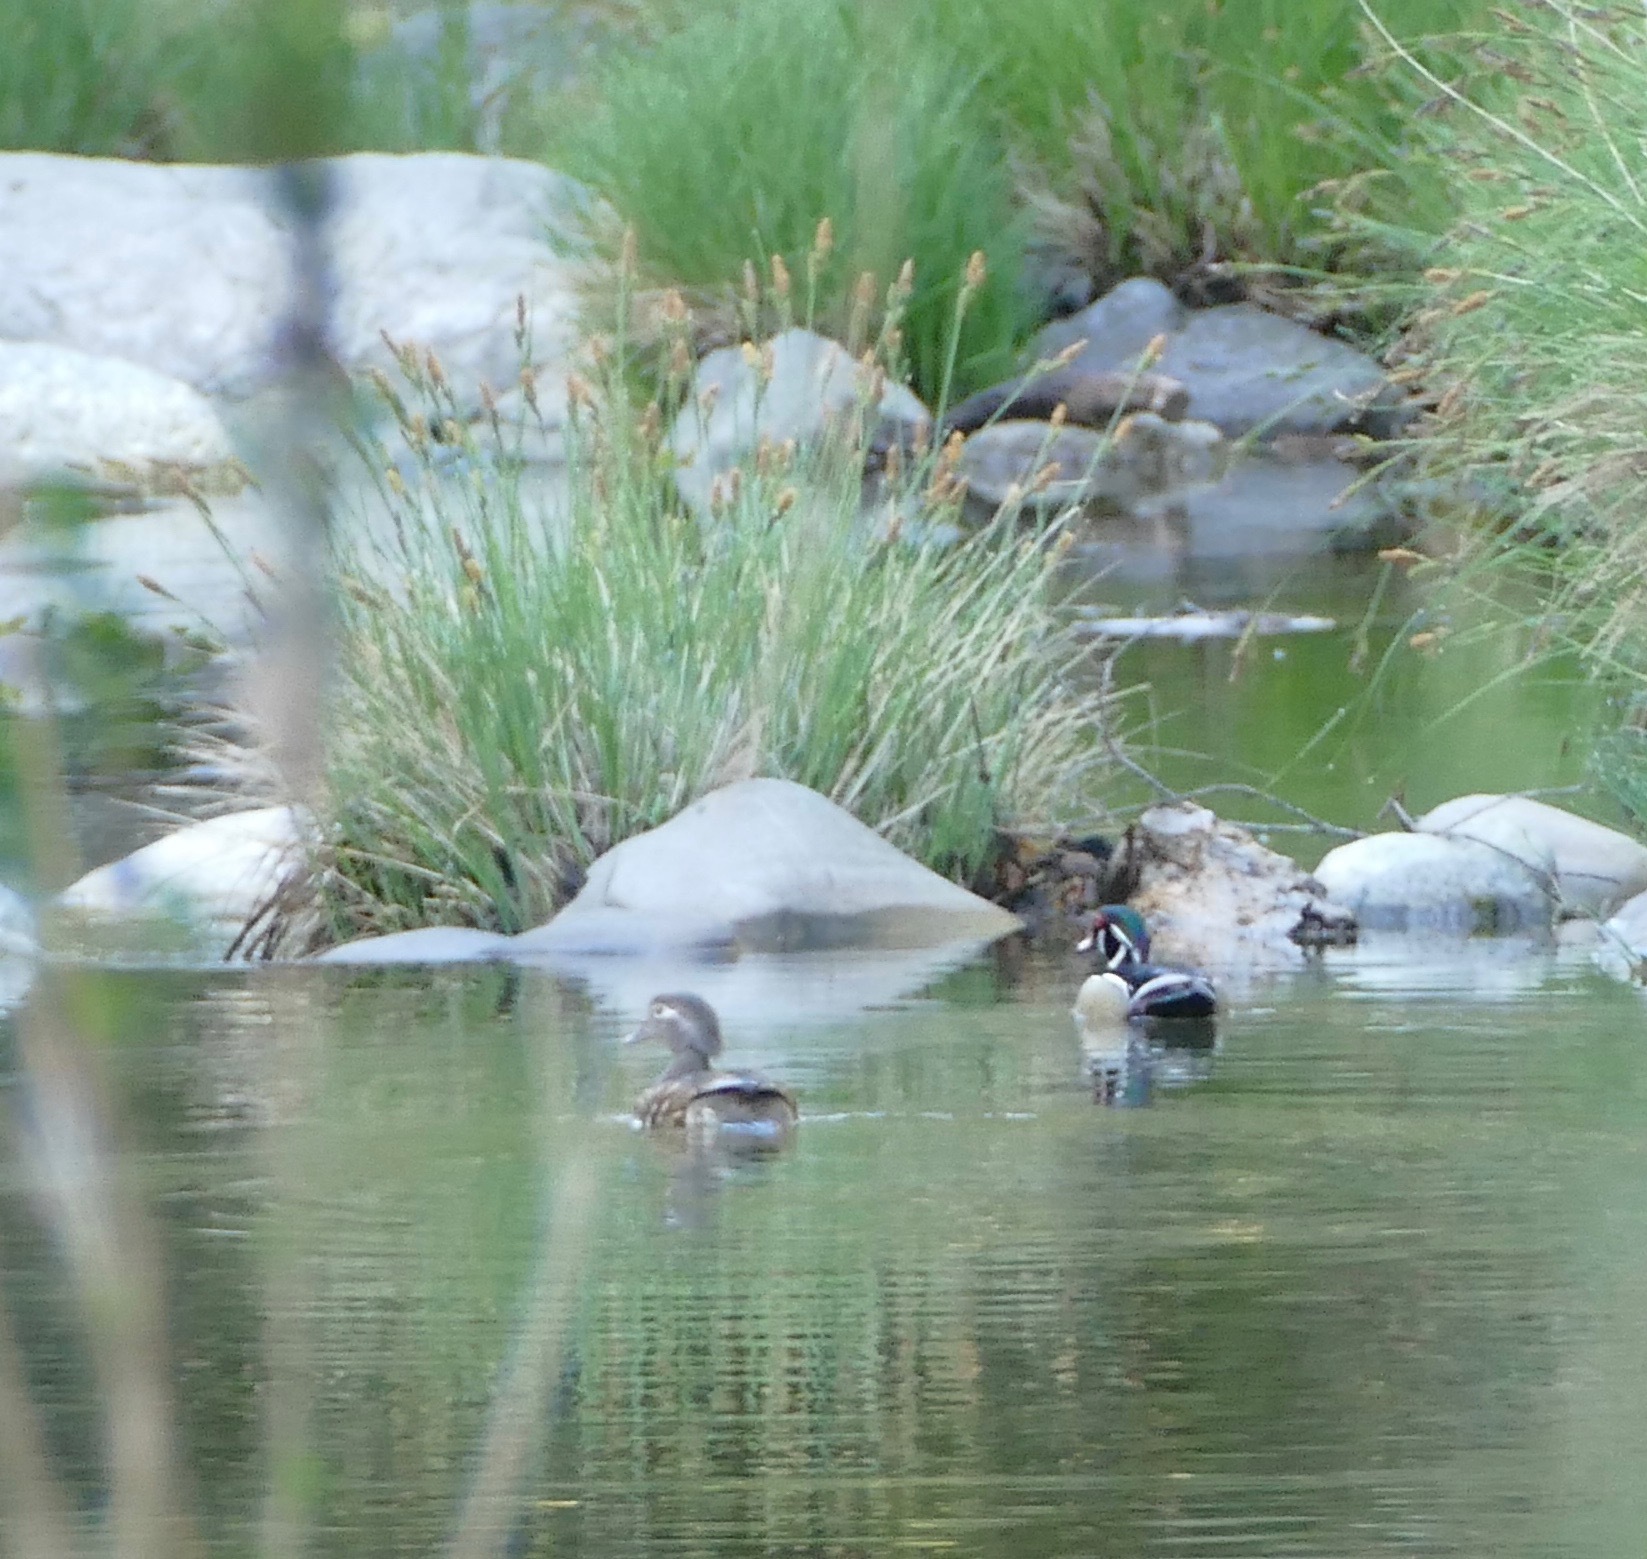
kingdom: Animalia
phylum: Chordata
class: Aves
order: Anseriformes
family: Anatidae
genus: Aix
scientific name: Aix sponsa
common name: Wood duck
